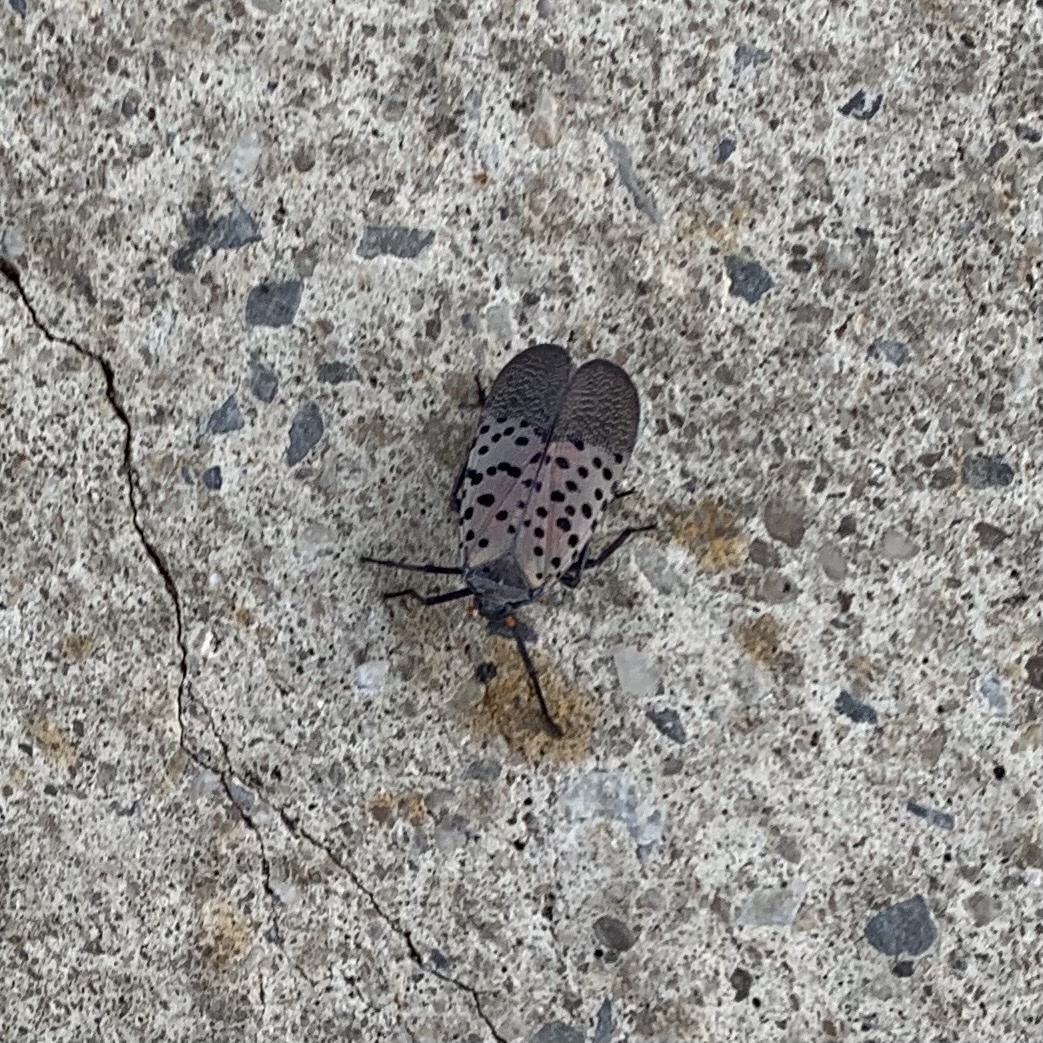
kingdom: Animalia
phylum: Arthropoda
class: Insecta
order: Hemiptera
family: Fulgoridae
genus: Lycorma
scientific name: Lycorma delicatula
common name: Spotted lanternfly
